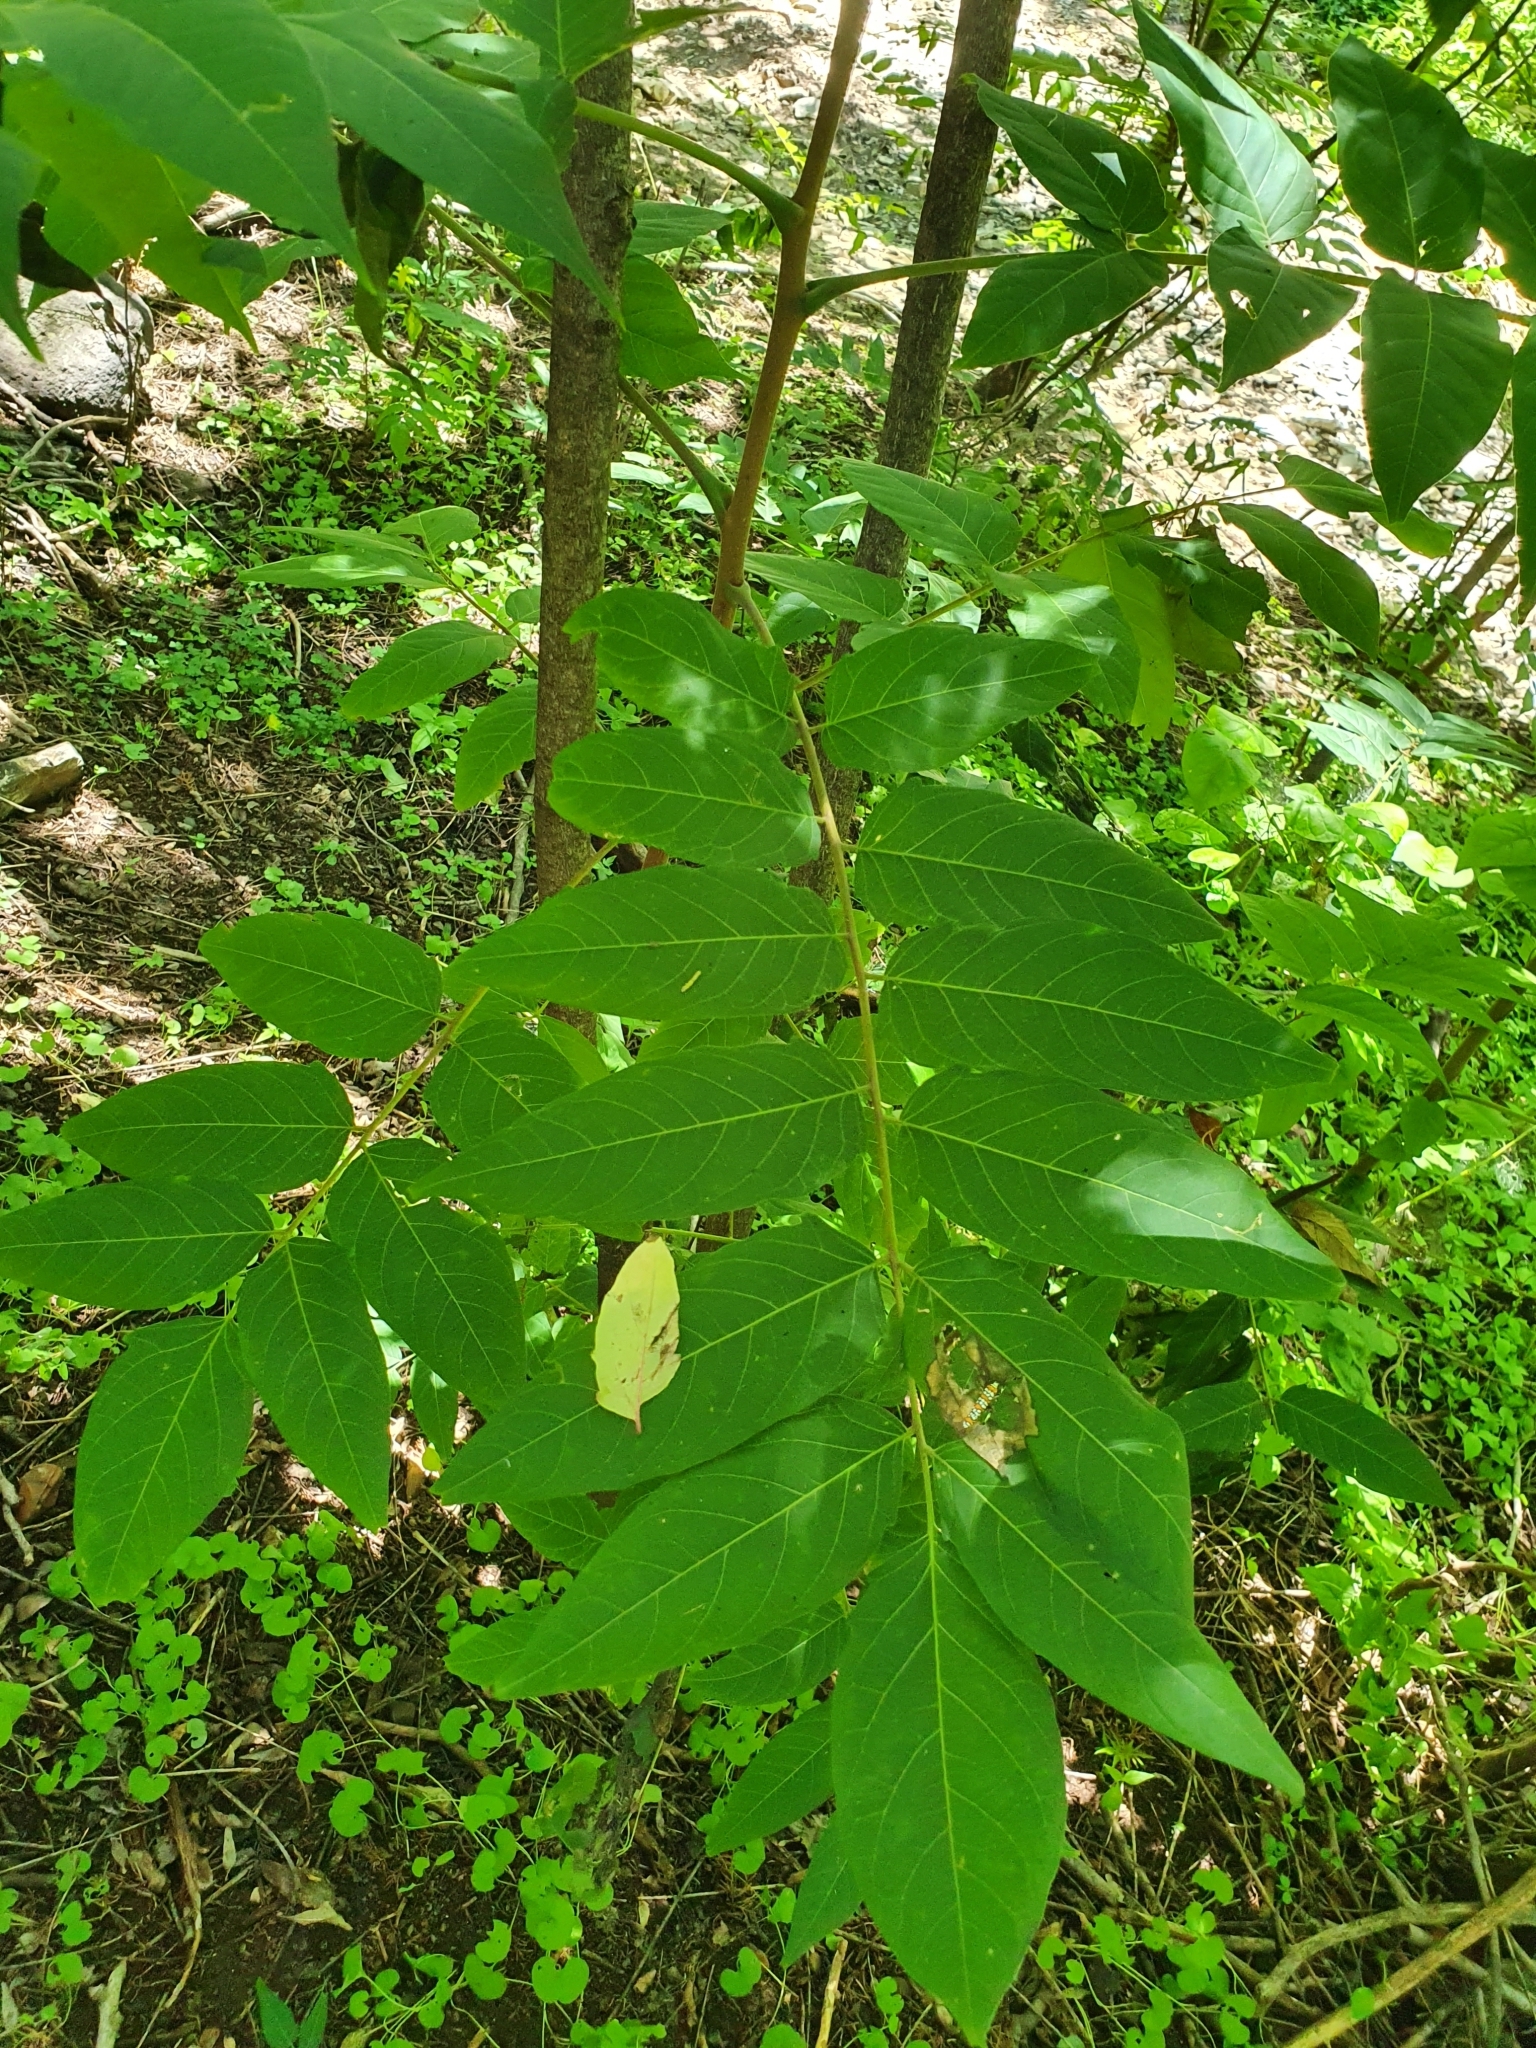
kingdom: Plantae
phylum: Tracheophyta
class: Magnoliopsida
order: Sapindales
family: Simaroubaceae
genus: Ailanthus
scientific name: Ailanthus altissima
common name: Tree-of-heaven
